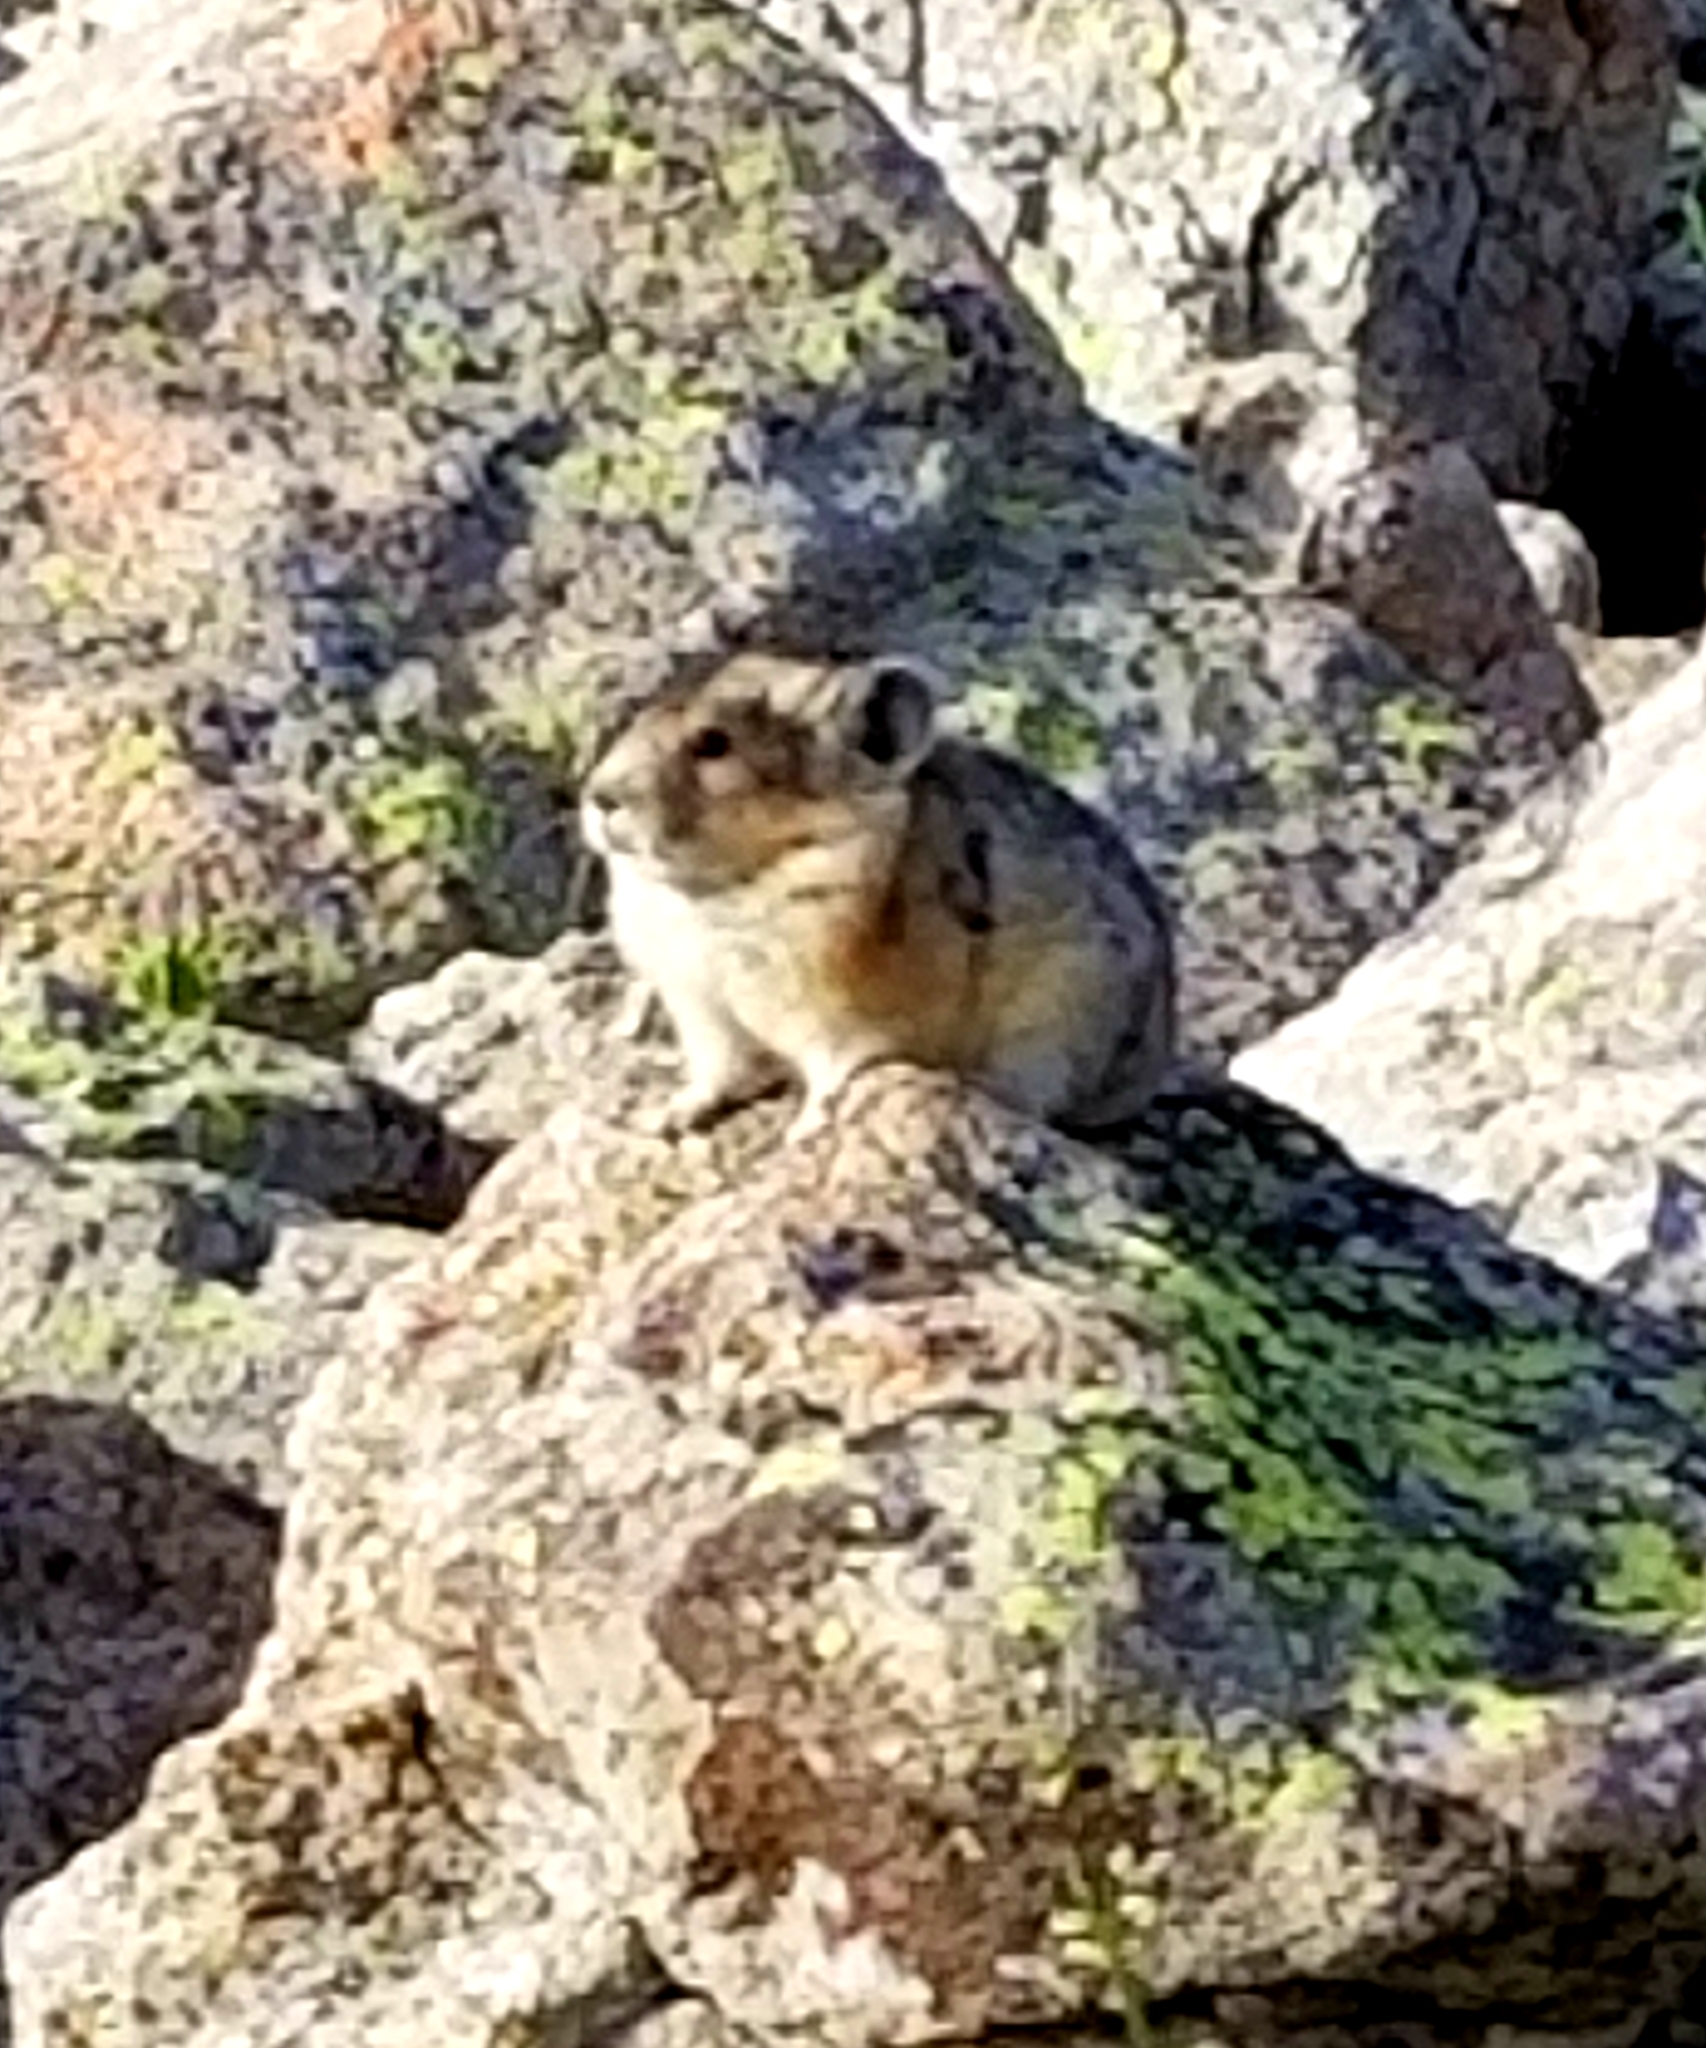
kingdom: Animalia
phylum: Chordata
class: Mammalia
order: Lagomorpha
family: Ochotonidae
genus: Ochotona
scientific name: Ochotona princeps
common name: American pika
